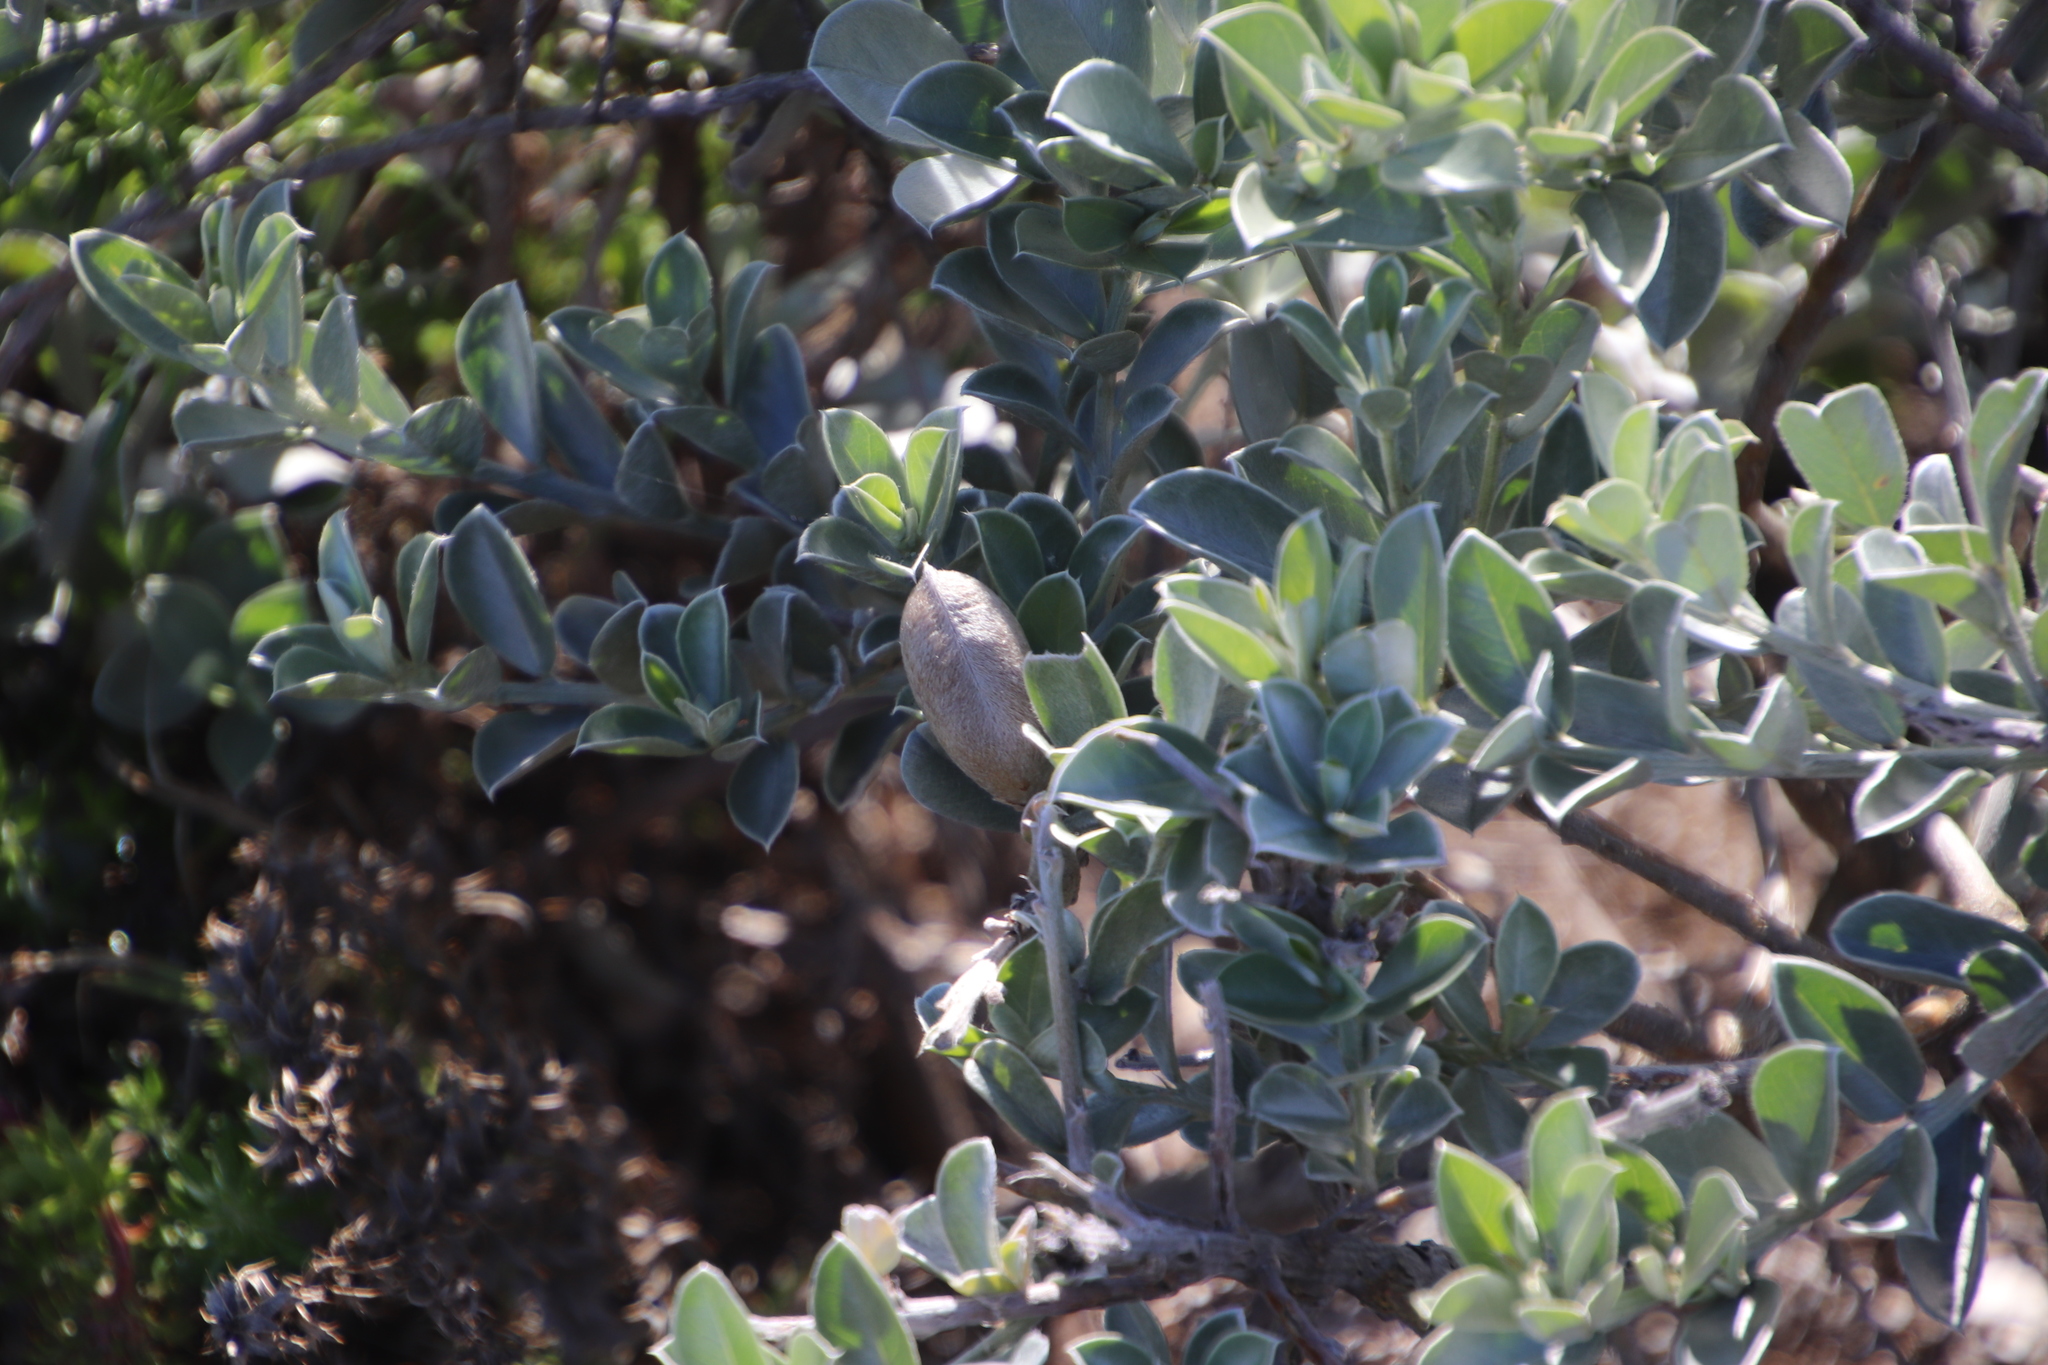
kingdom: Plantae
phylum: Tracheophyta
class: Magnoliopsida
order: Fabales
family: Fabaceae
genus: Podalyria
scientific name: Podalyria sericea
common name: Silver podalyria
